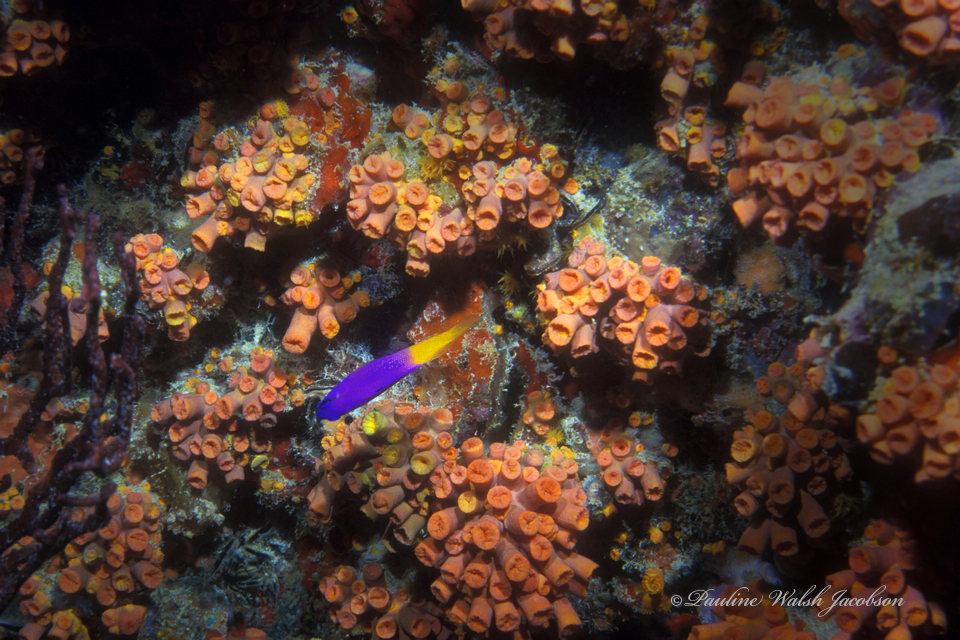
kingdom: Animalia
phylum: Cnidaria
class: Anthozoa
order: Scleractinia
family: Dendrophylliidae
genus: Tubastraea
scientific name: Tubastraea tagusensis
